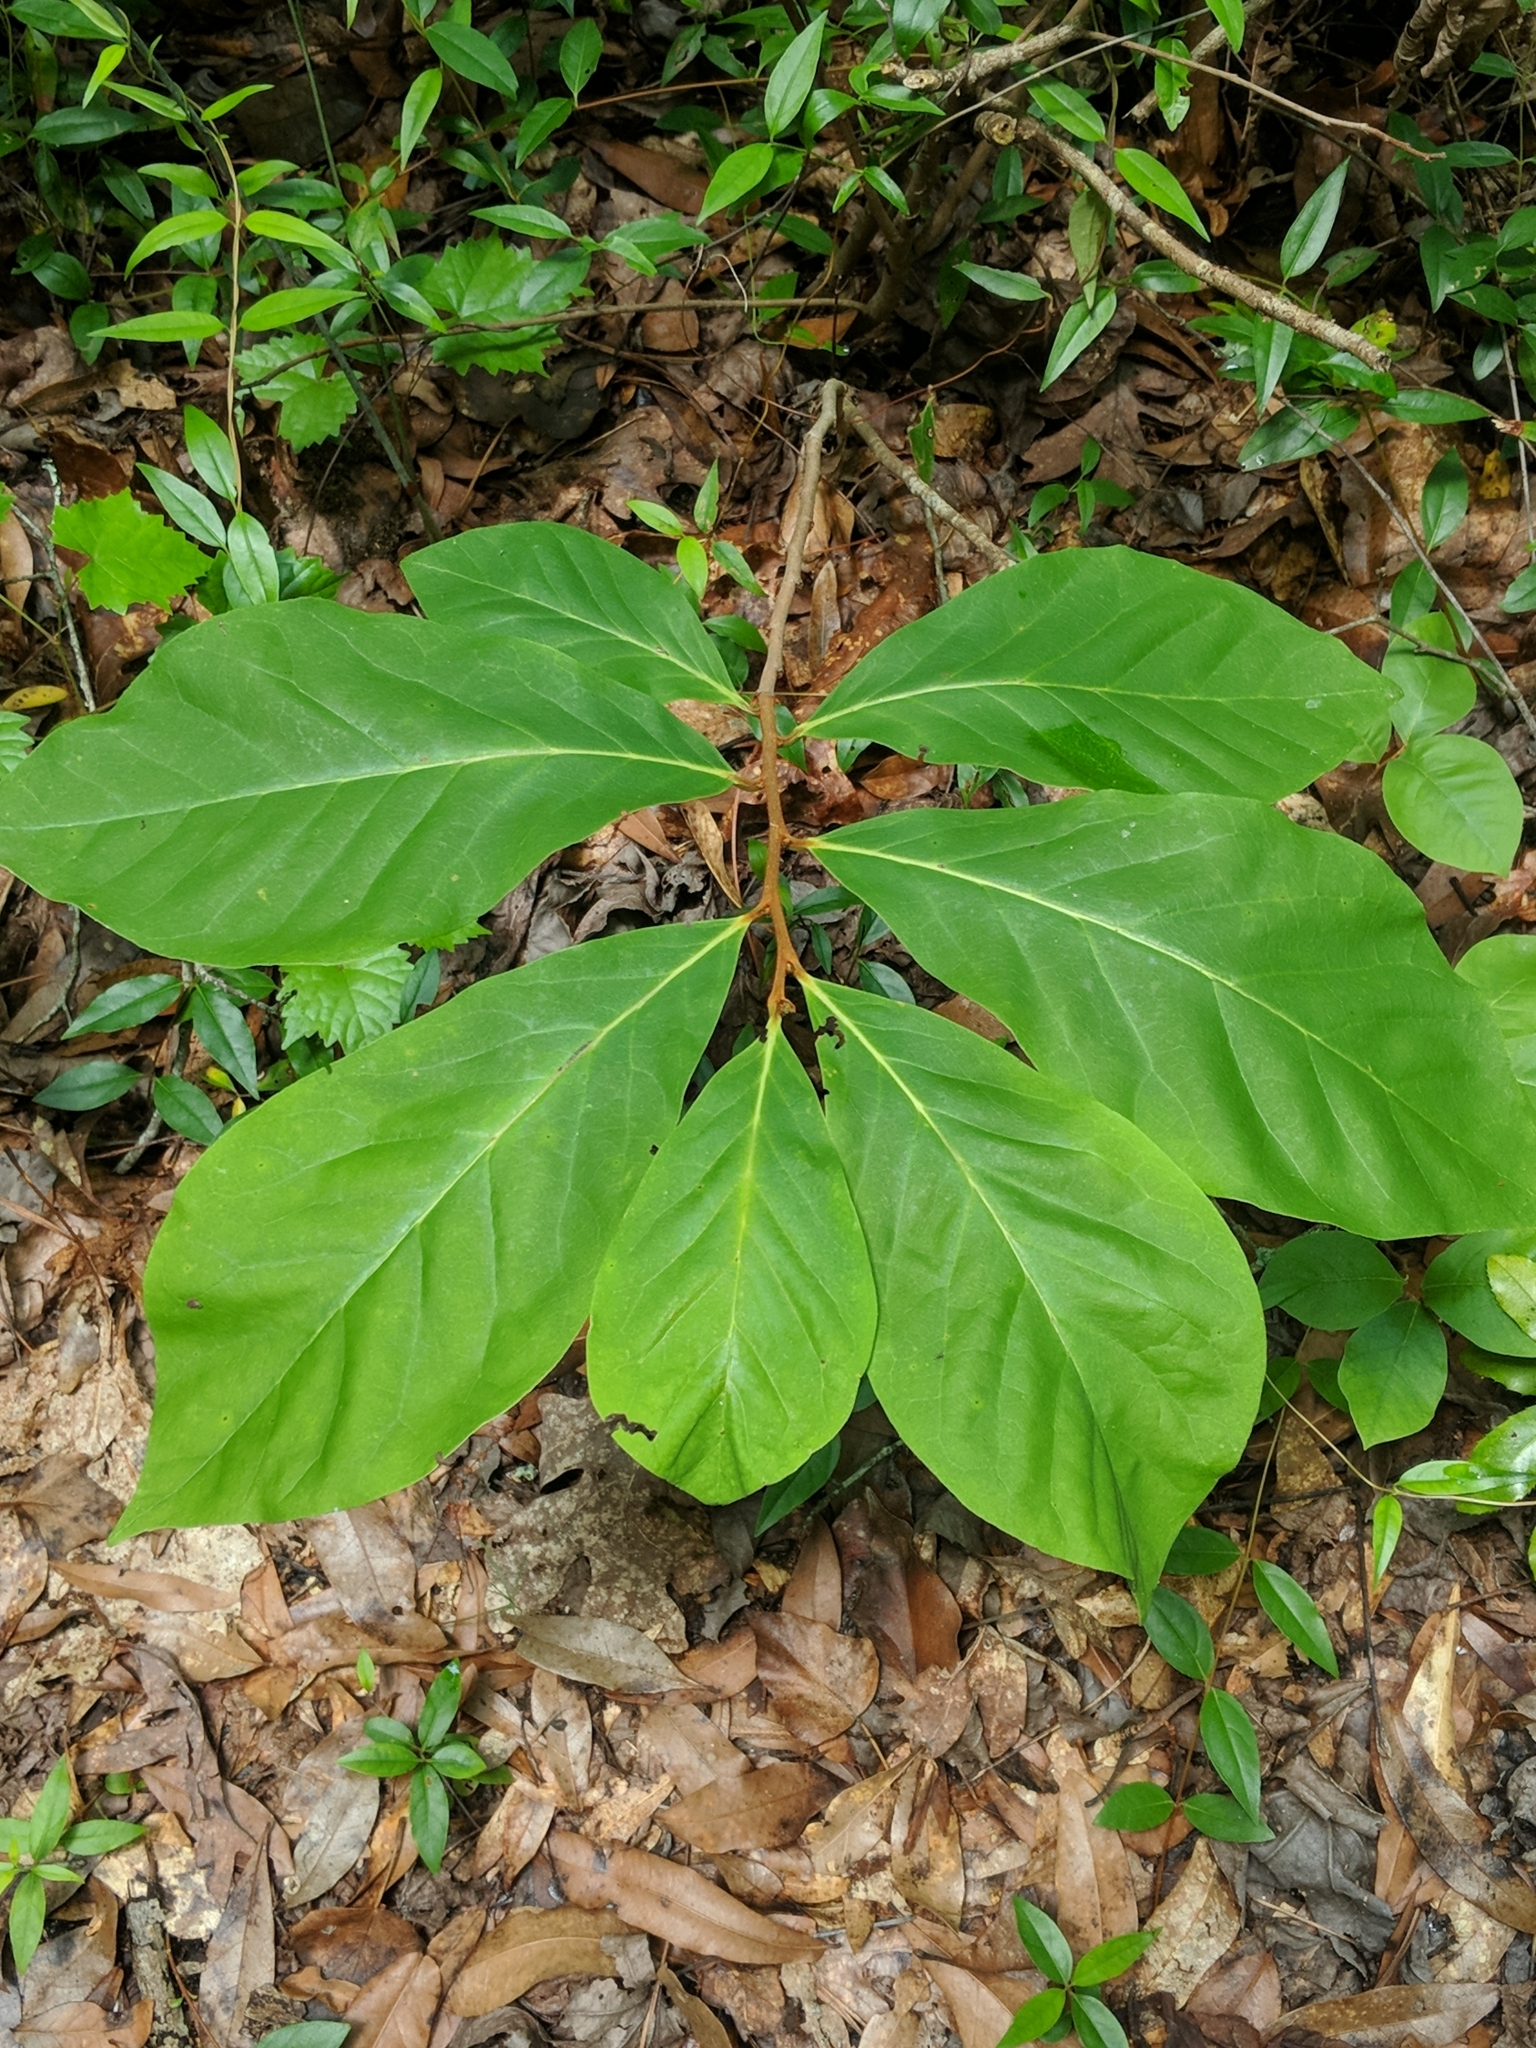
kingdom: Plantae
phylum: Tracheophyta
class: Magnoliopsida
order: Magnoliales
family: Annonaceae
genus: Asimina
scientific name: Asimina parviflora
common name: Dwarf pawpaw
